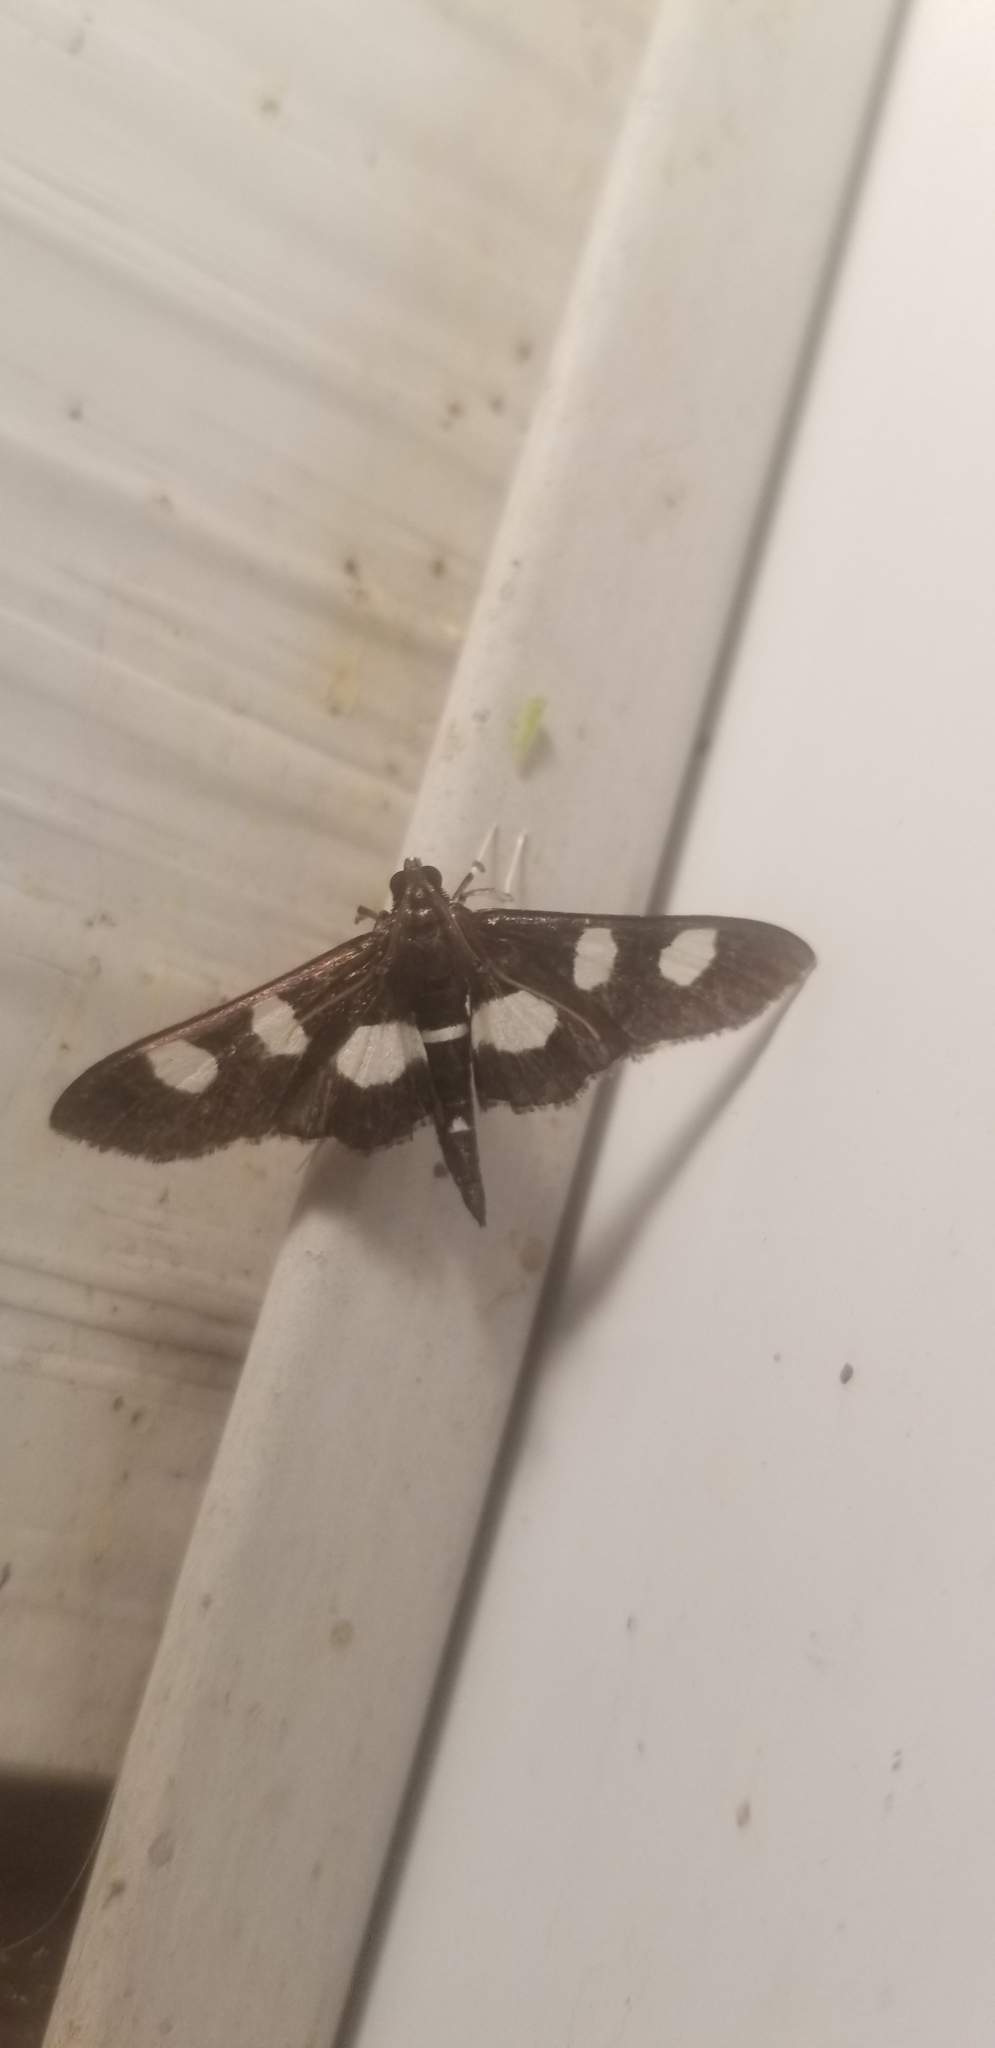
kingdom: Animalia
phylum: Arthropoda
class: Insecta
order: Lepidoptera
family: Crambidae
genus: Desmia
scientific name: Desmia
